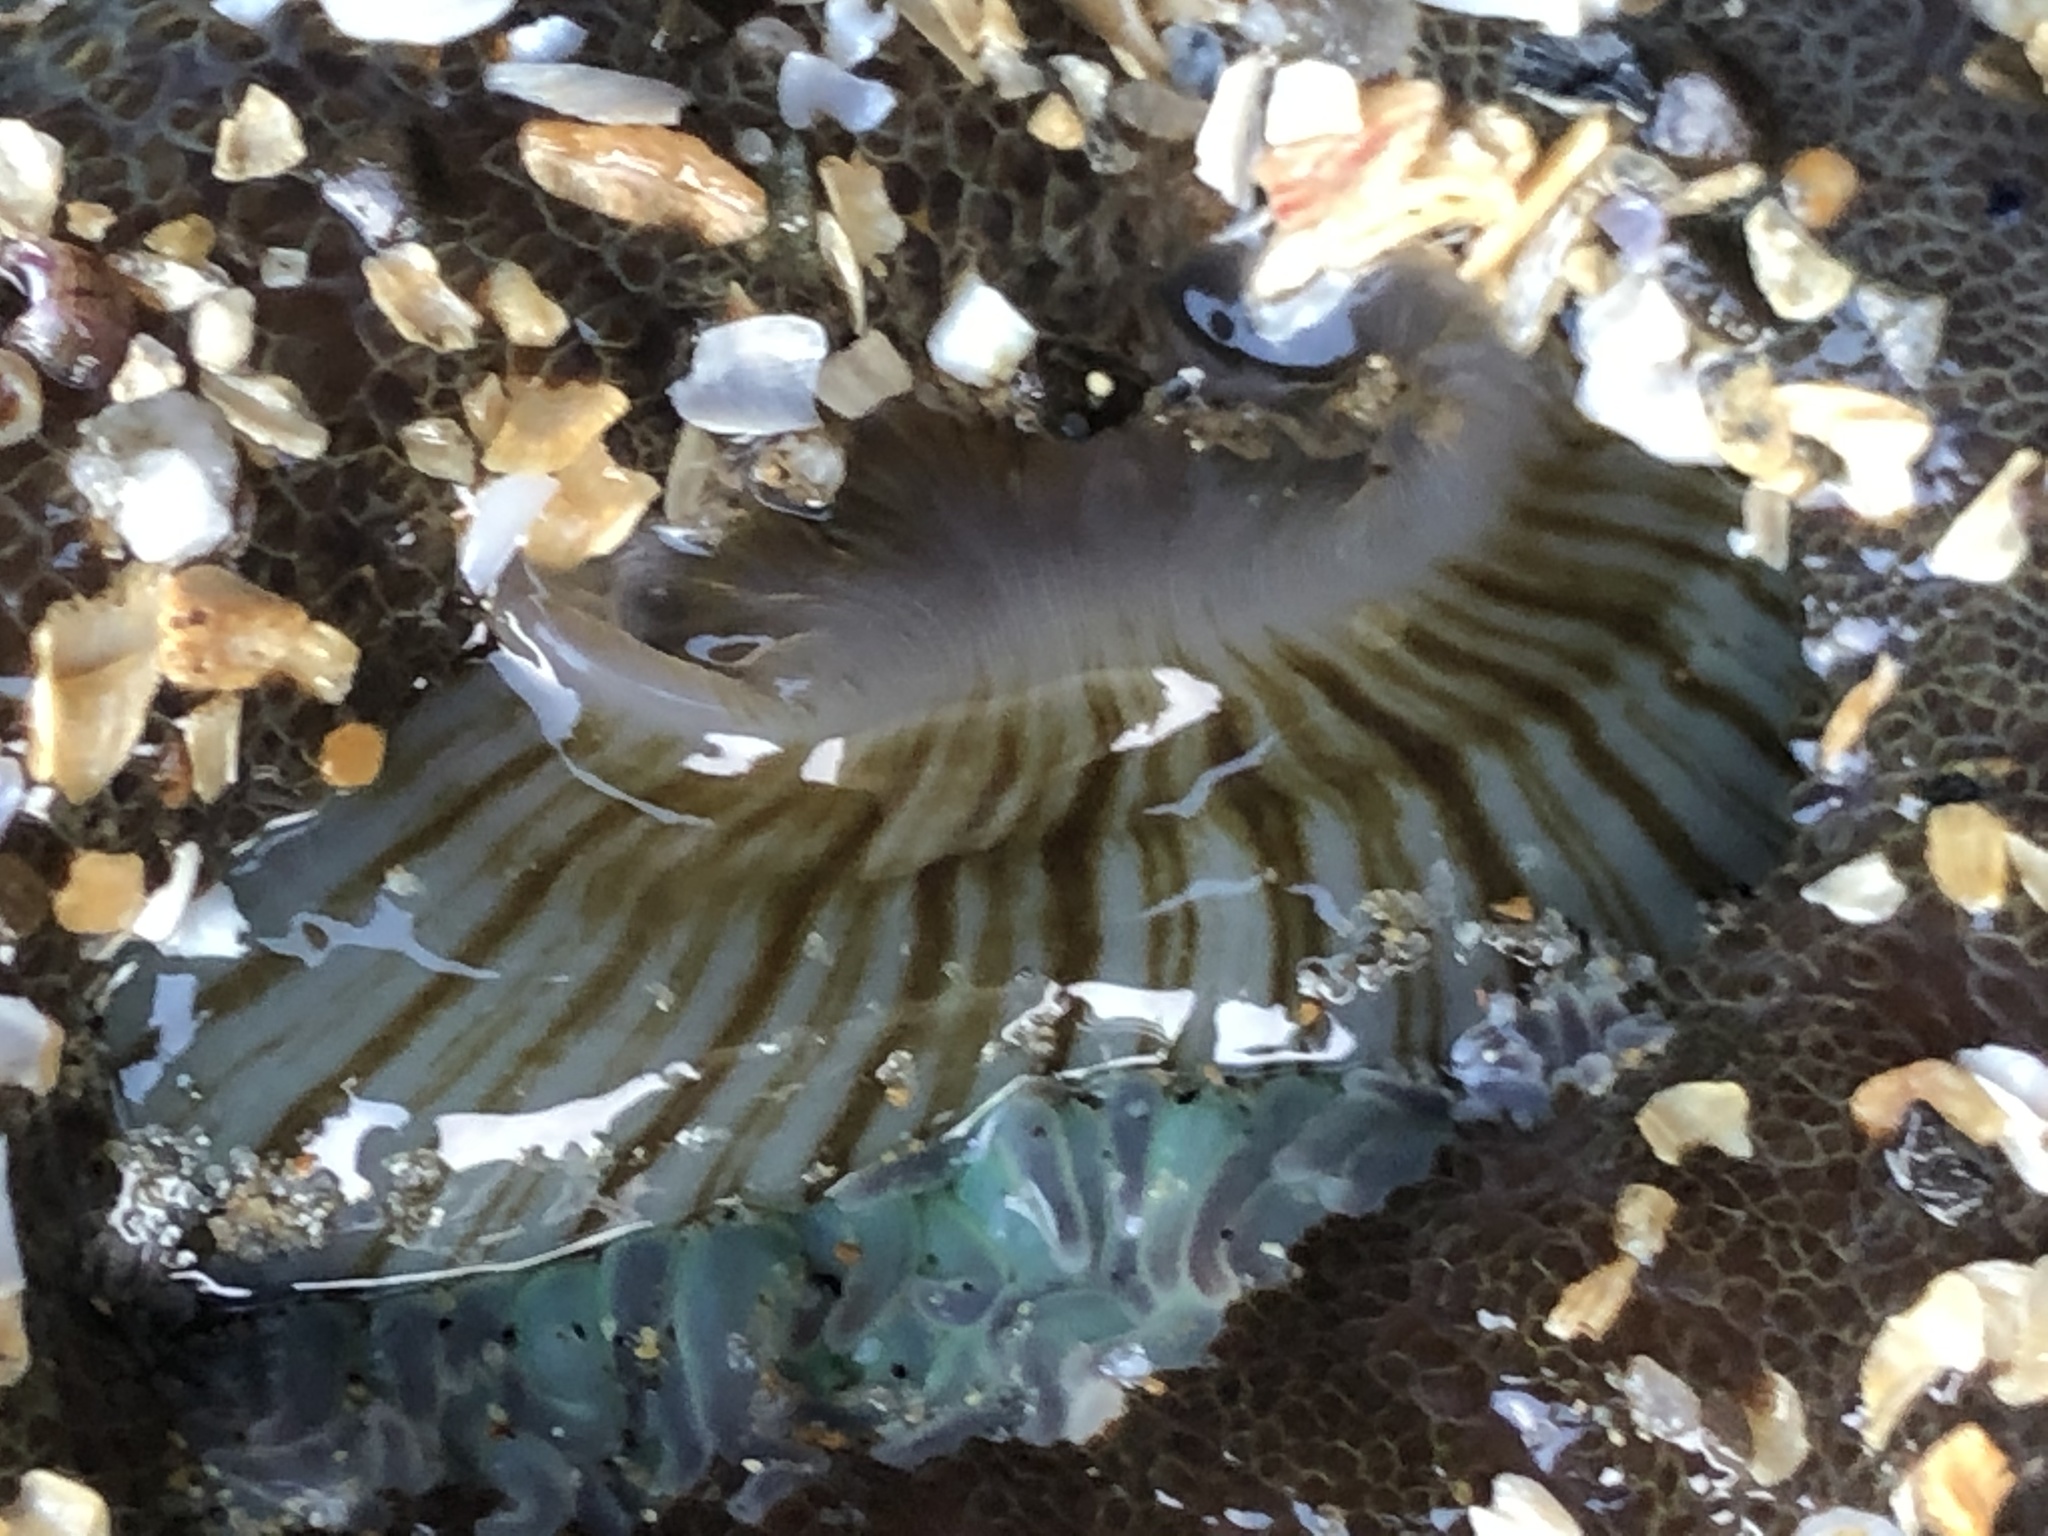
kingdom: Animalia
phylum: Cnidaria
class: Anthozoa
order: Actiniaria
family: Actiniidae
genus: Anthopleura
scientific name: Anthopleura sola
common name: Sun anemone
